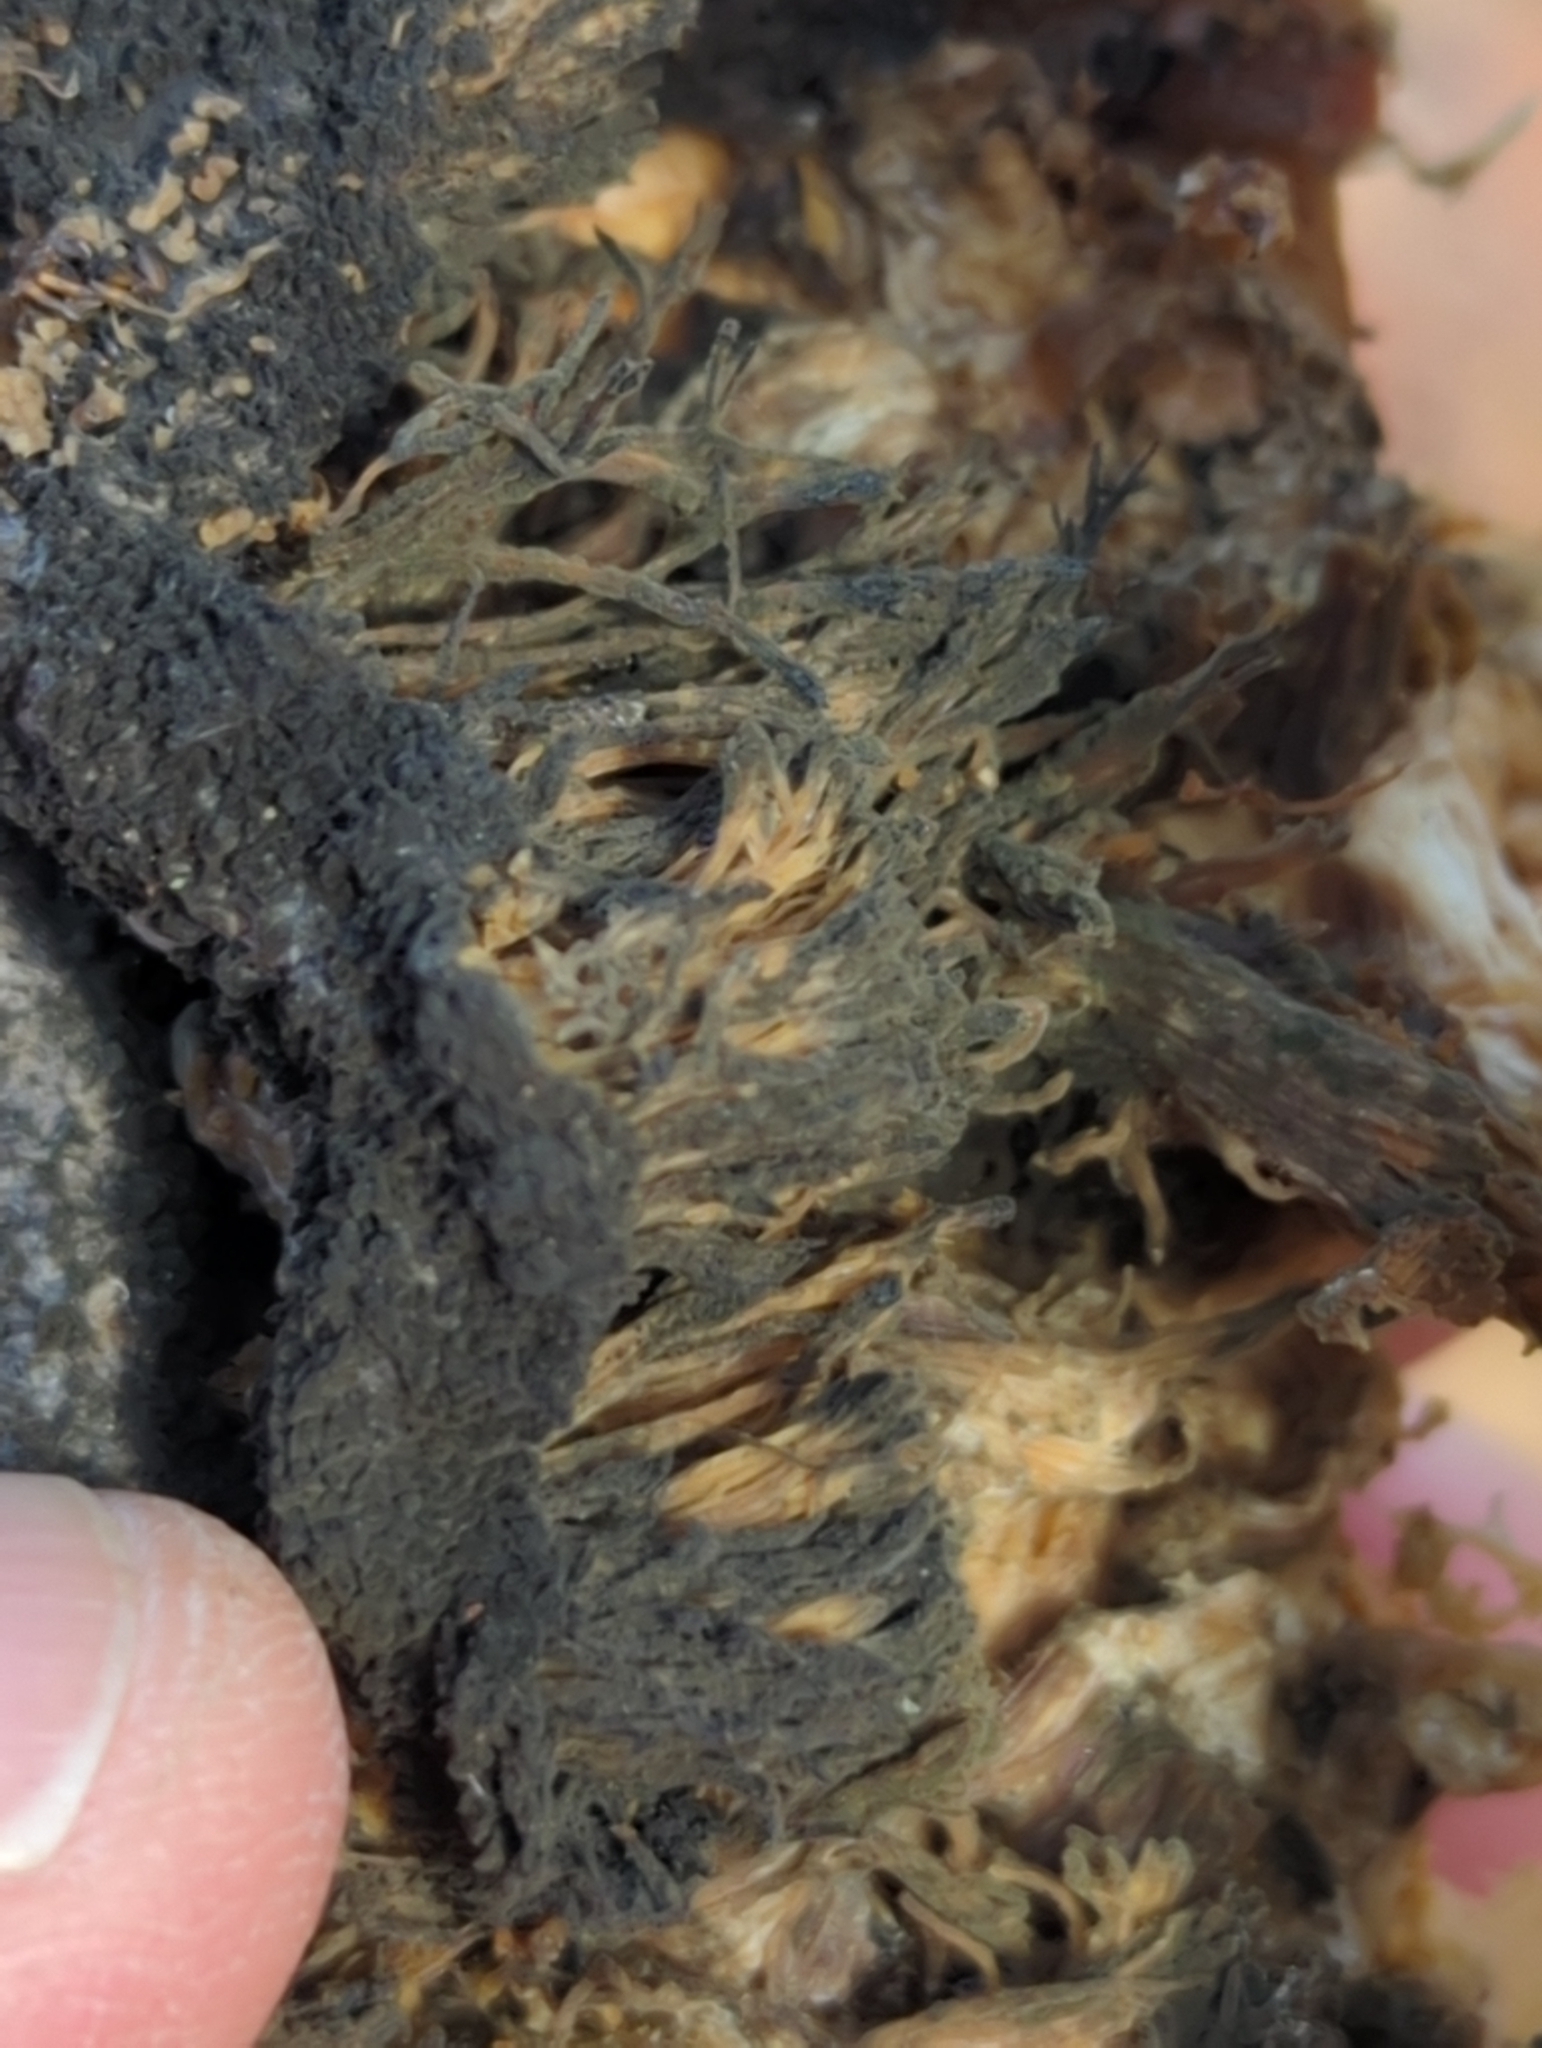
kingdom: Fungi
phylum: Basidiomycota
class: Agaricomycetes
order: Polyporales
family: Meruliaceae
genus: Climacodon
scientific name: Climacodon septentrionalis
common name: Northern tooth
